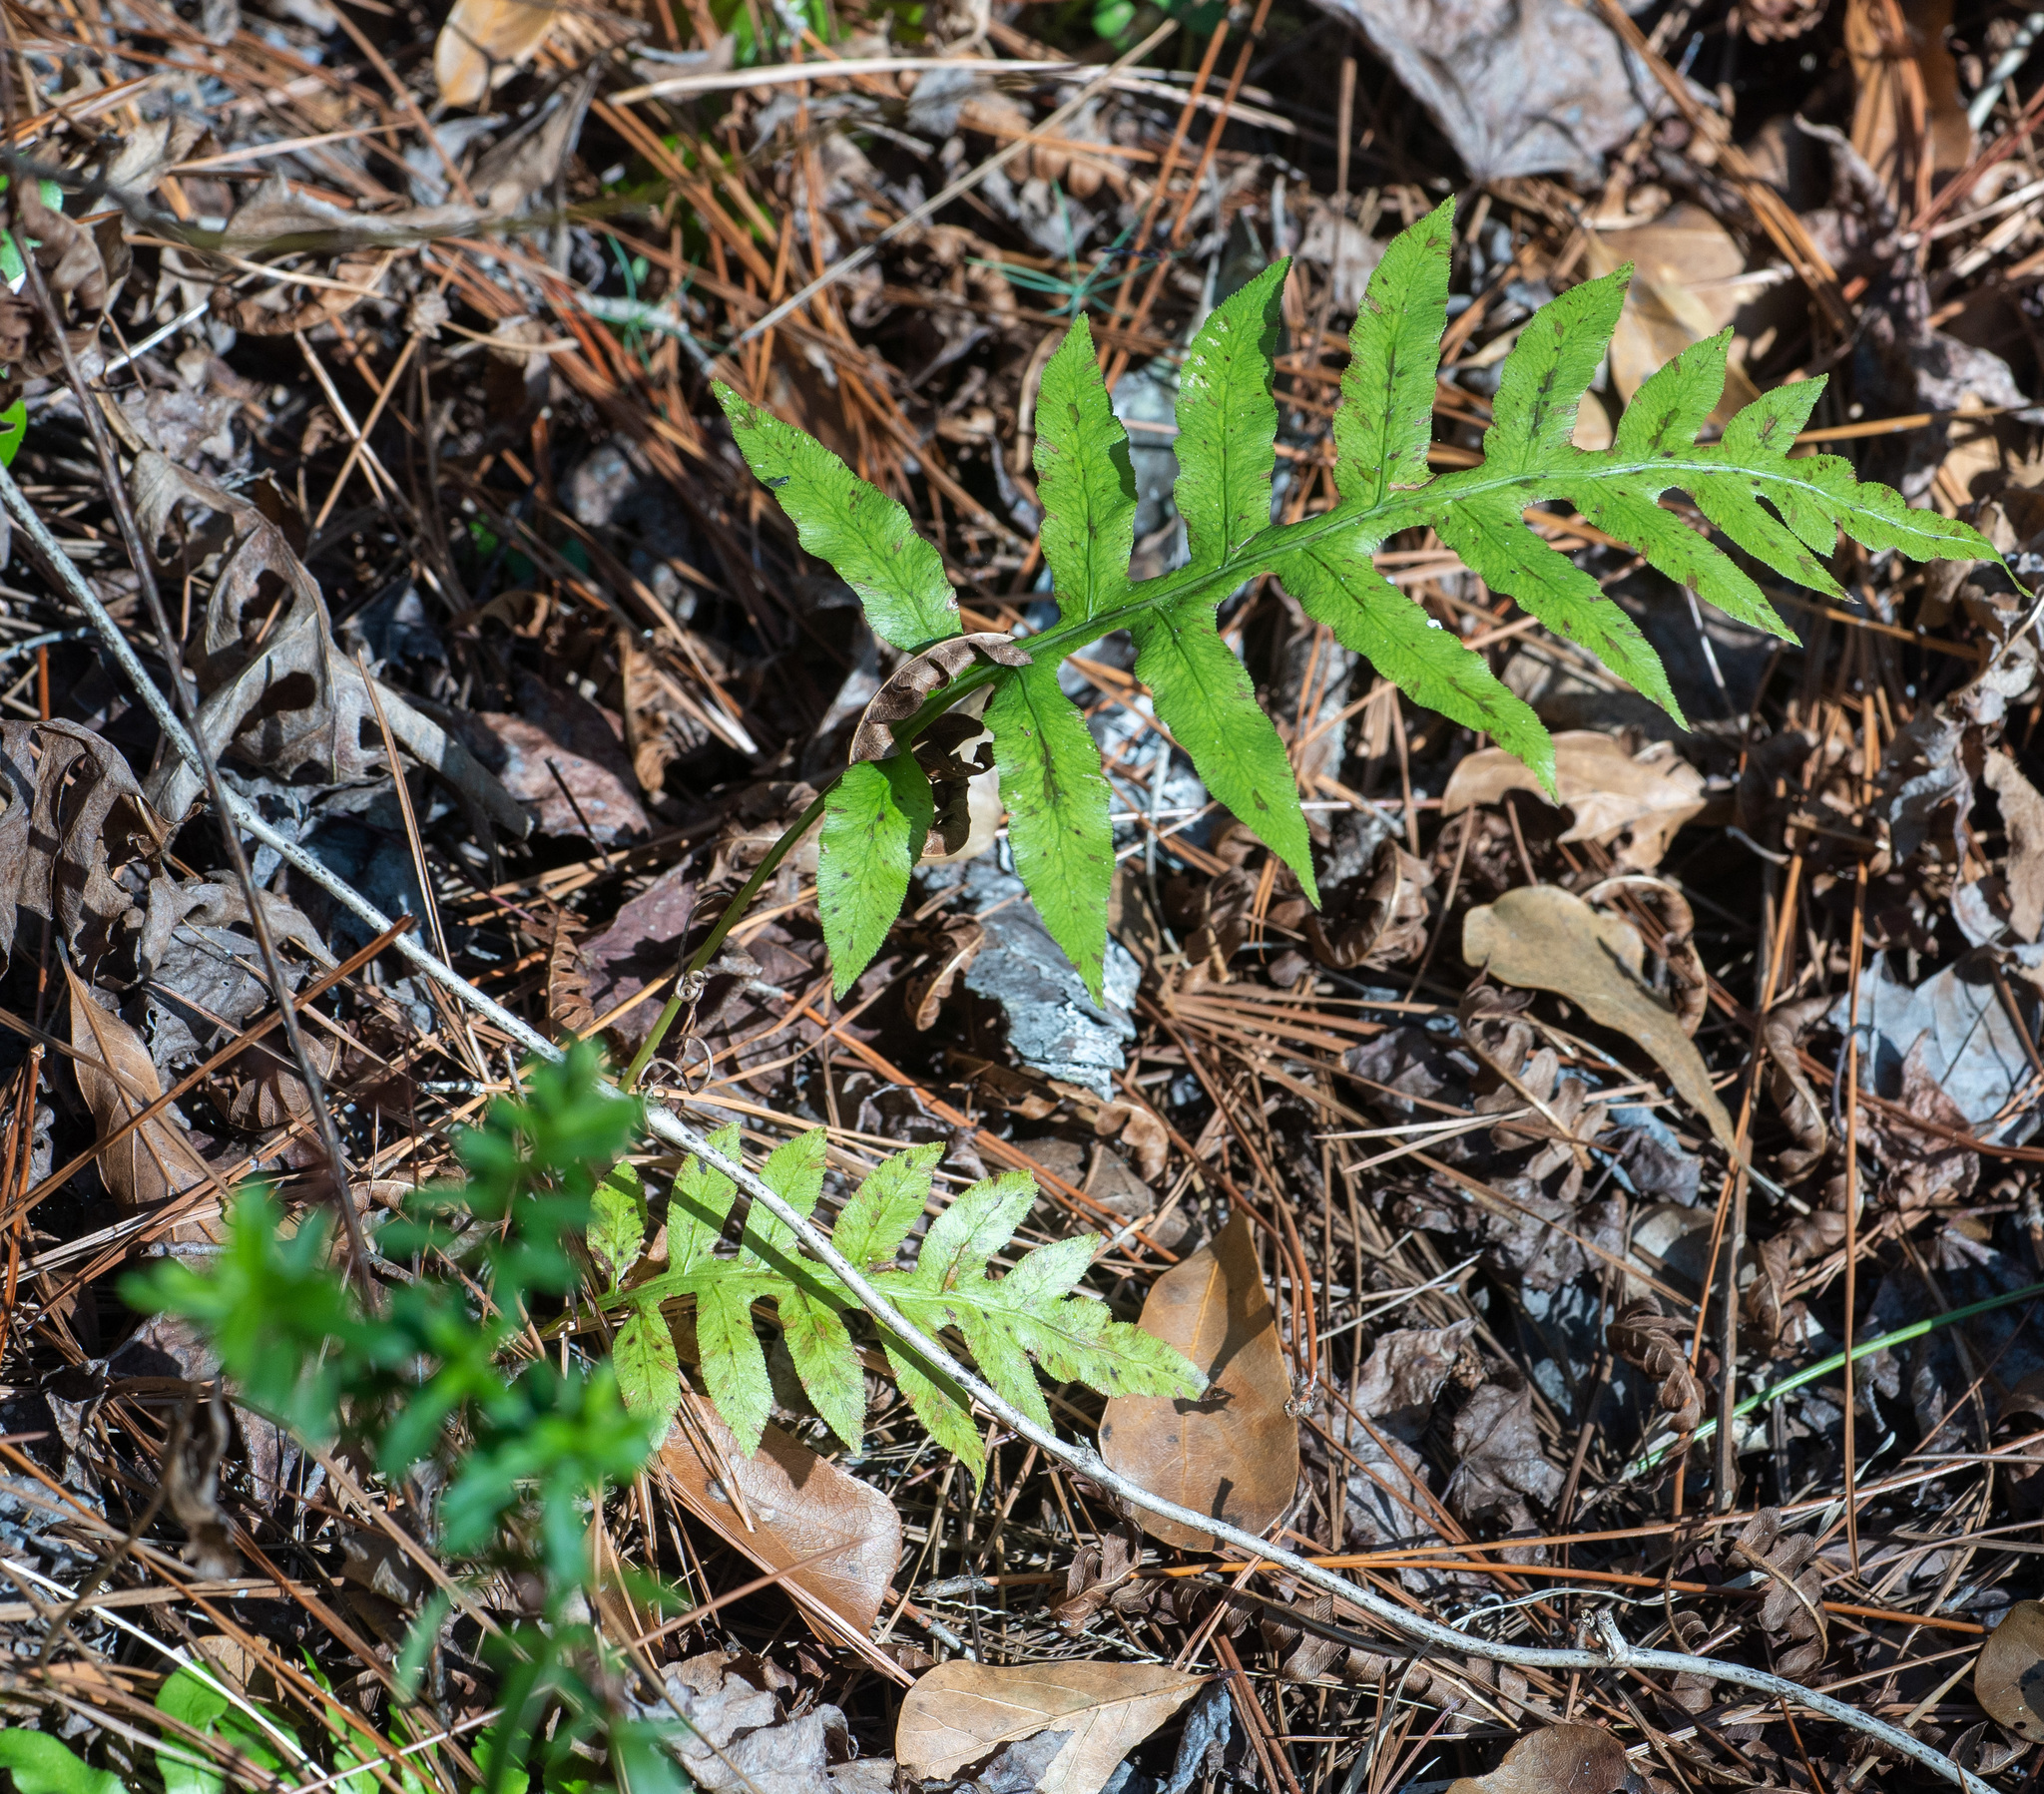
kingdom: Plantae
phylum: Tracheophyta
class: Polypodiopsida
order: Polypodiales
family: Blechnaceae
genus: Lorinseria
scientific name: Lorinseria areolata
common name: Dwarf chain fern
